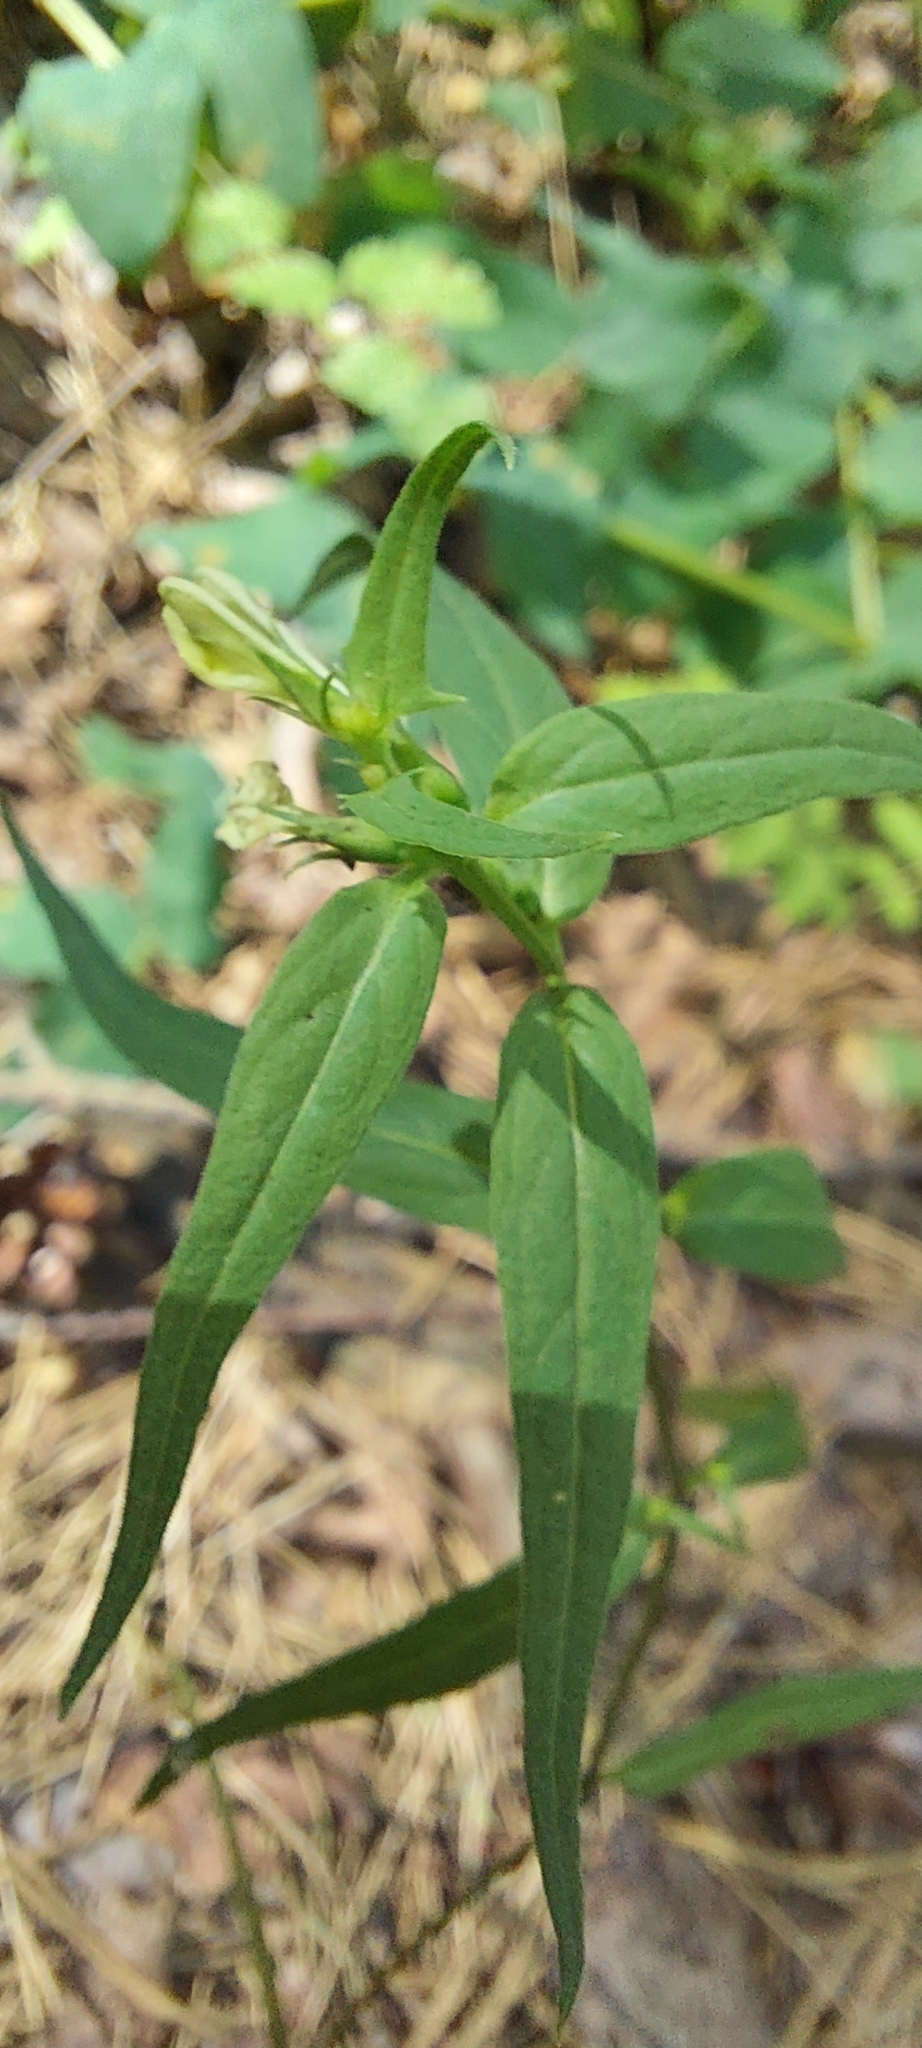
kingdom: Plantae
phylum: Tracheophyta
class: Magnoliopsida
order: Lamiales
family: Orobanchaceae
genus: Melampyrum
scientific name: Melampyrum pratense
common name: Common cow-wheat
